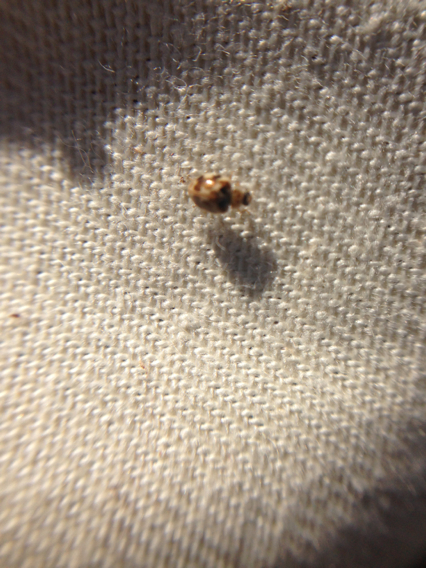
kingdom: Animalia
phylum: Arthropoda
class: Insecta
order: Coleoptera
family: Coccinellidae
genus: Psyllobora
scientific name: Psyllobora vigintimaculata
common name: Ladybird beetle
